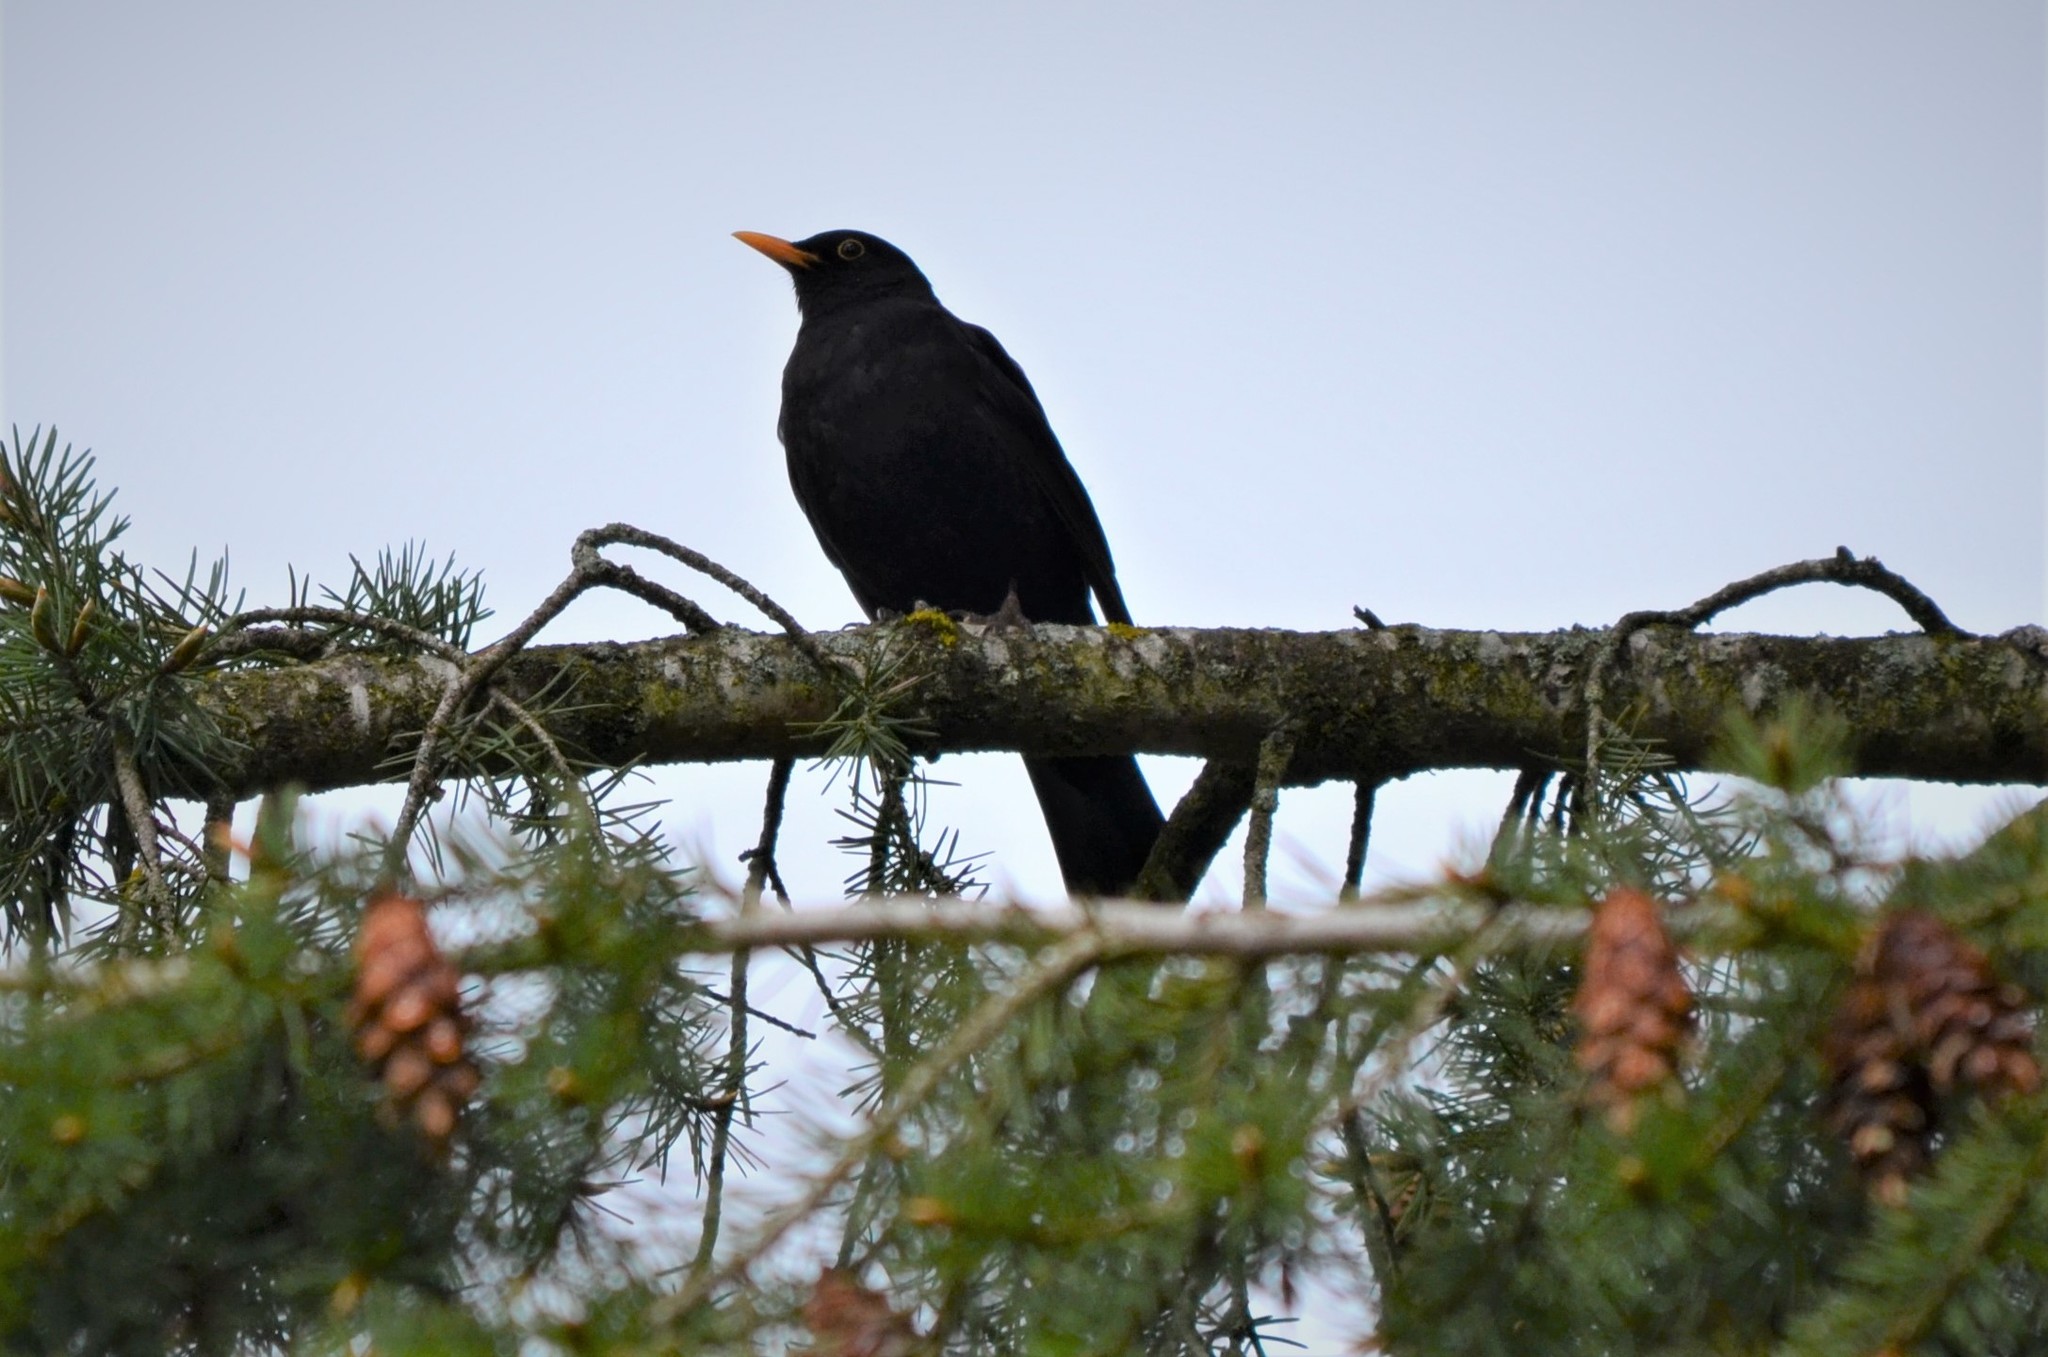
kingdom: Animalia
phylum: Chordata
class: Aves
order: Passeriformes
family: Turdidae
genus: Turdus
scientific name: Turdus merula
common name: Common blackbird
